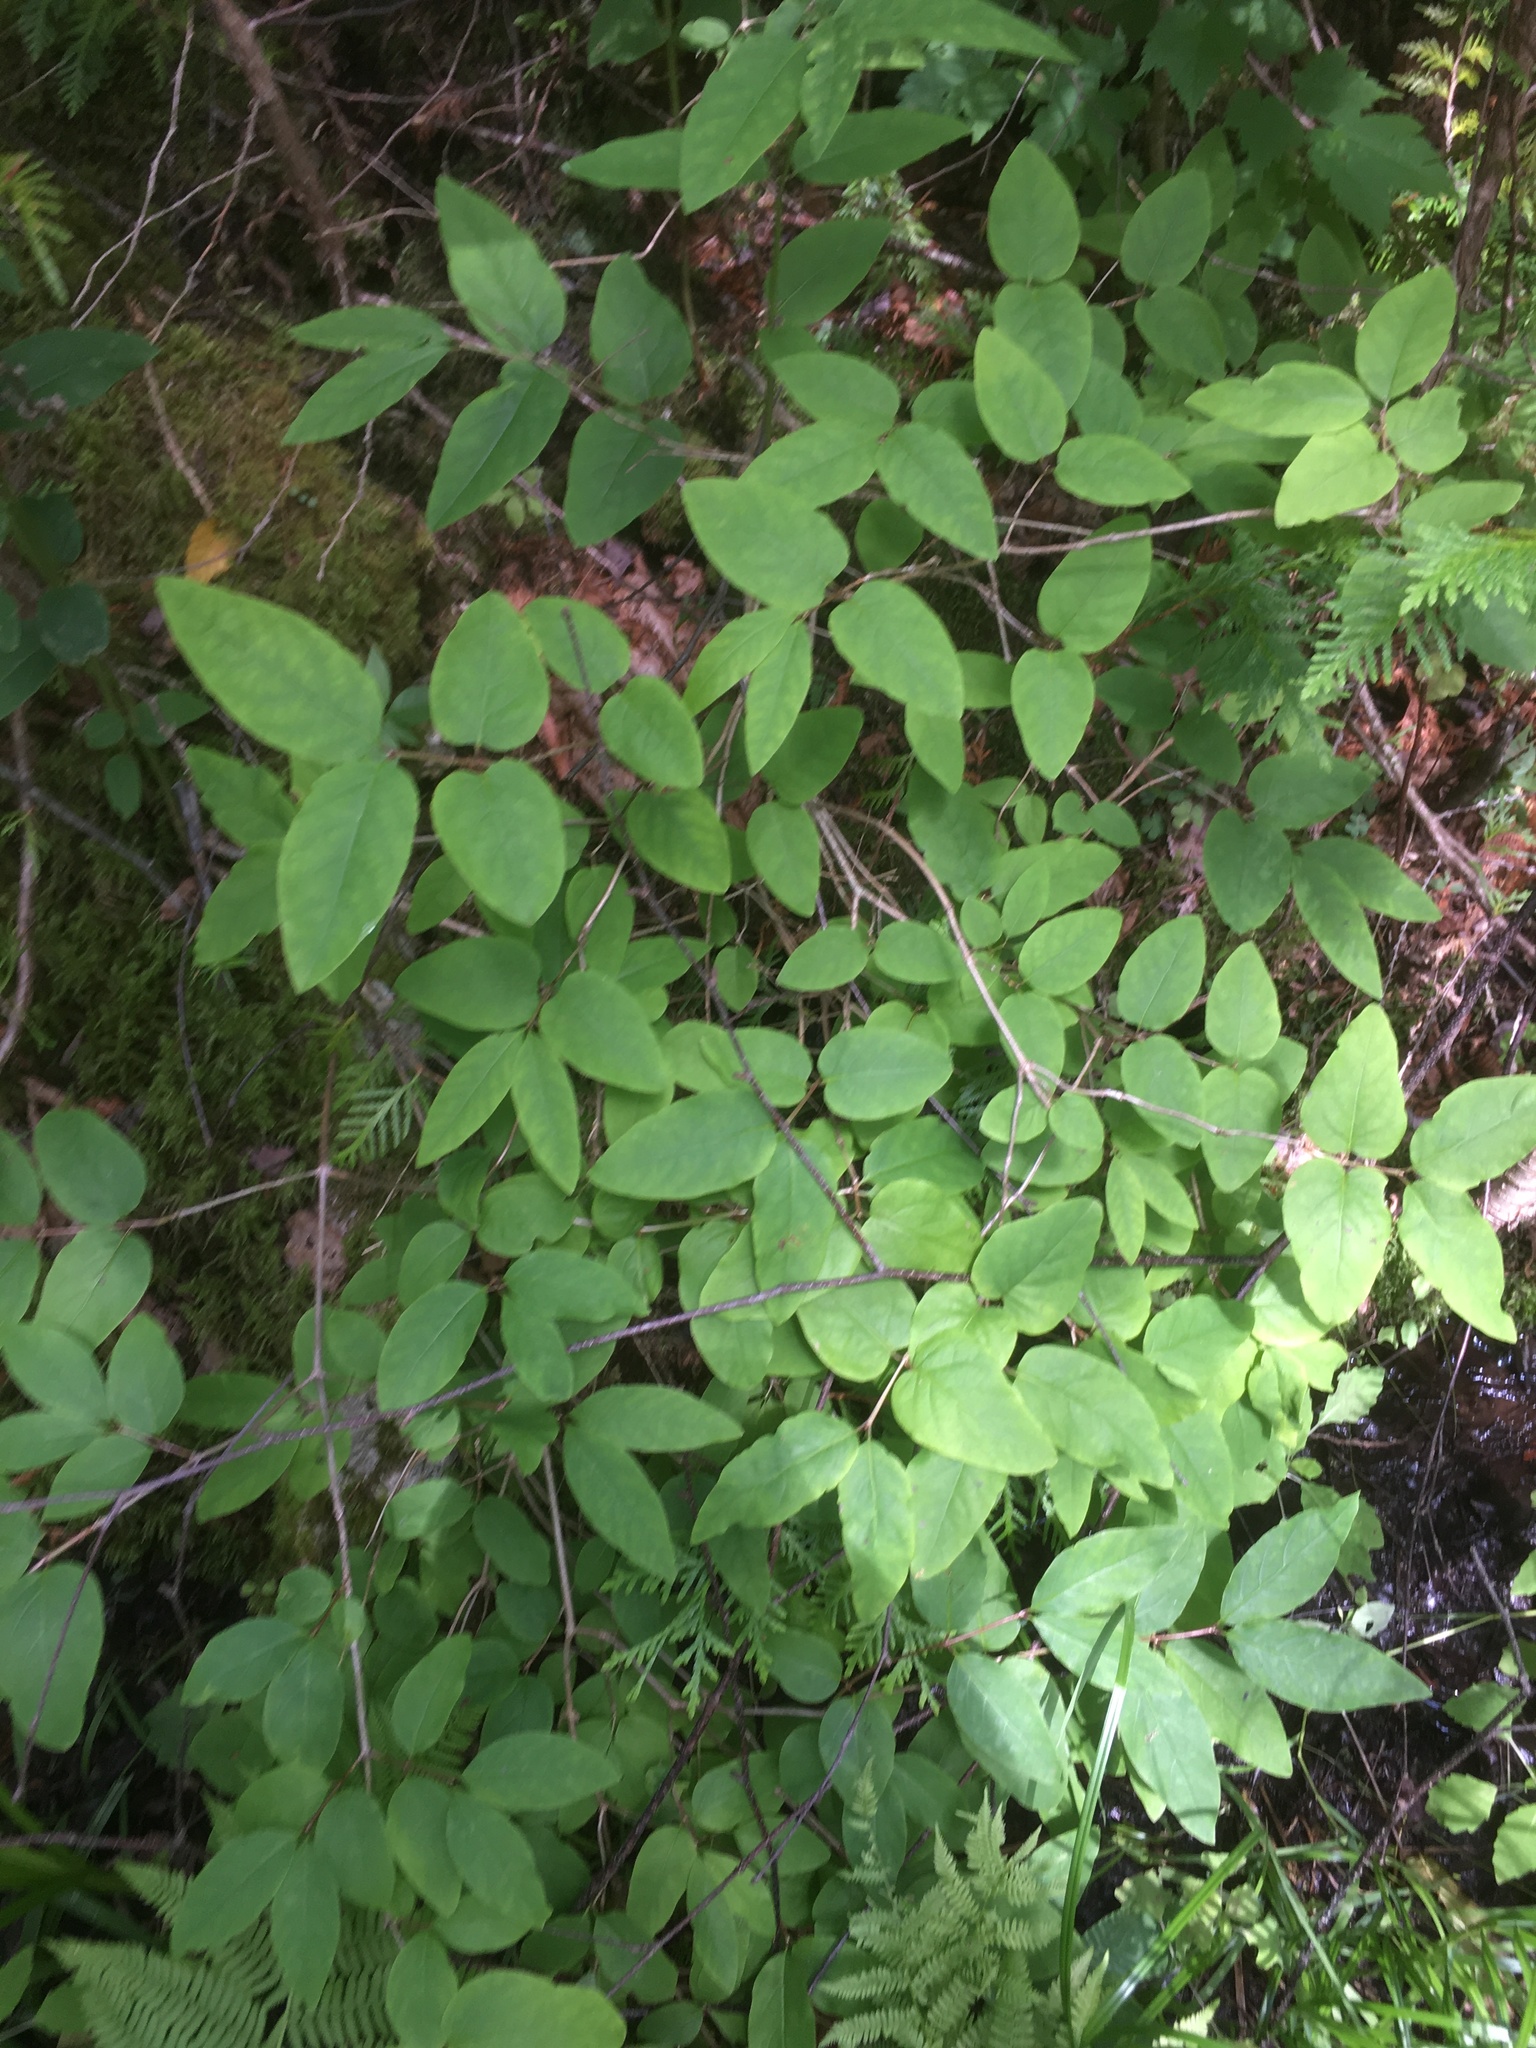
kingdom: Plantae
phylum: Tracheophyta
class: Magnoliopsida
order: Dipsacales
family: Caprifoliaceae
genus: Lonicera
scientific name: Lonicera canadensis
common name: American fly-honeysuckle
